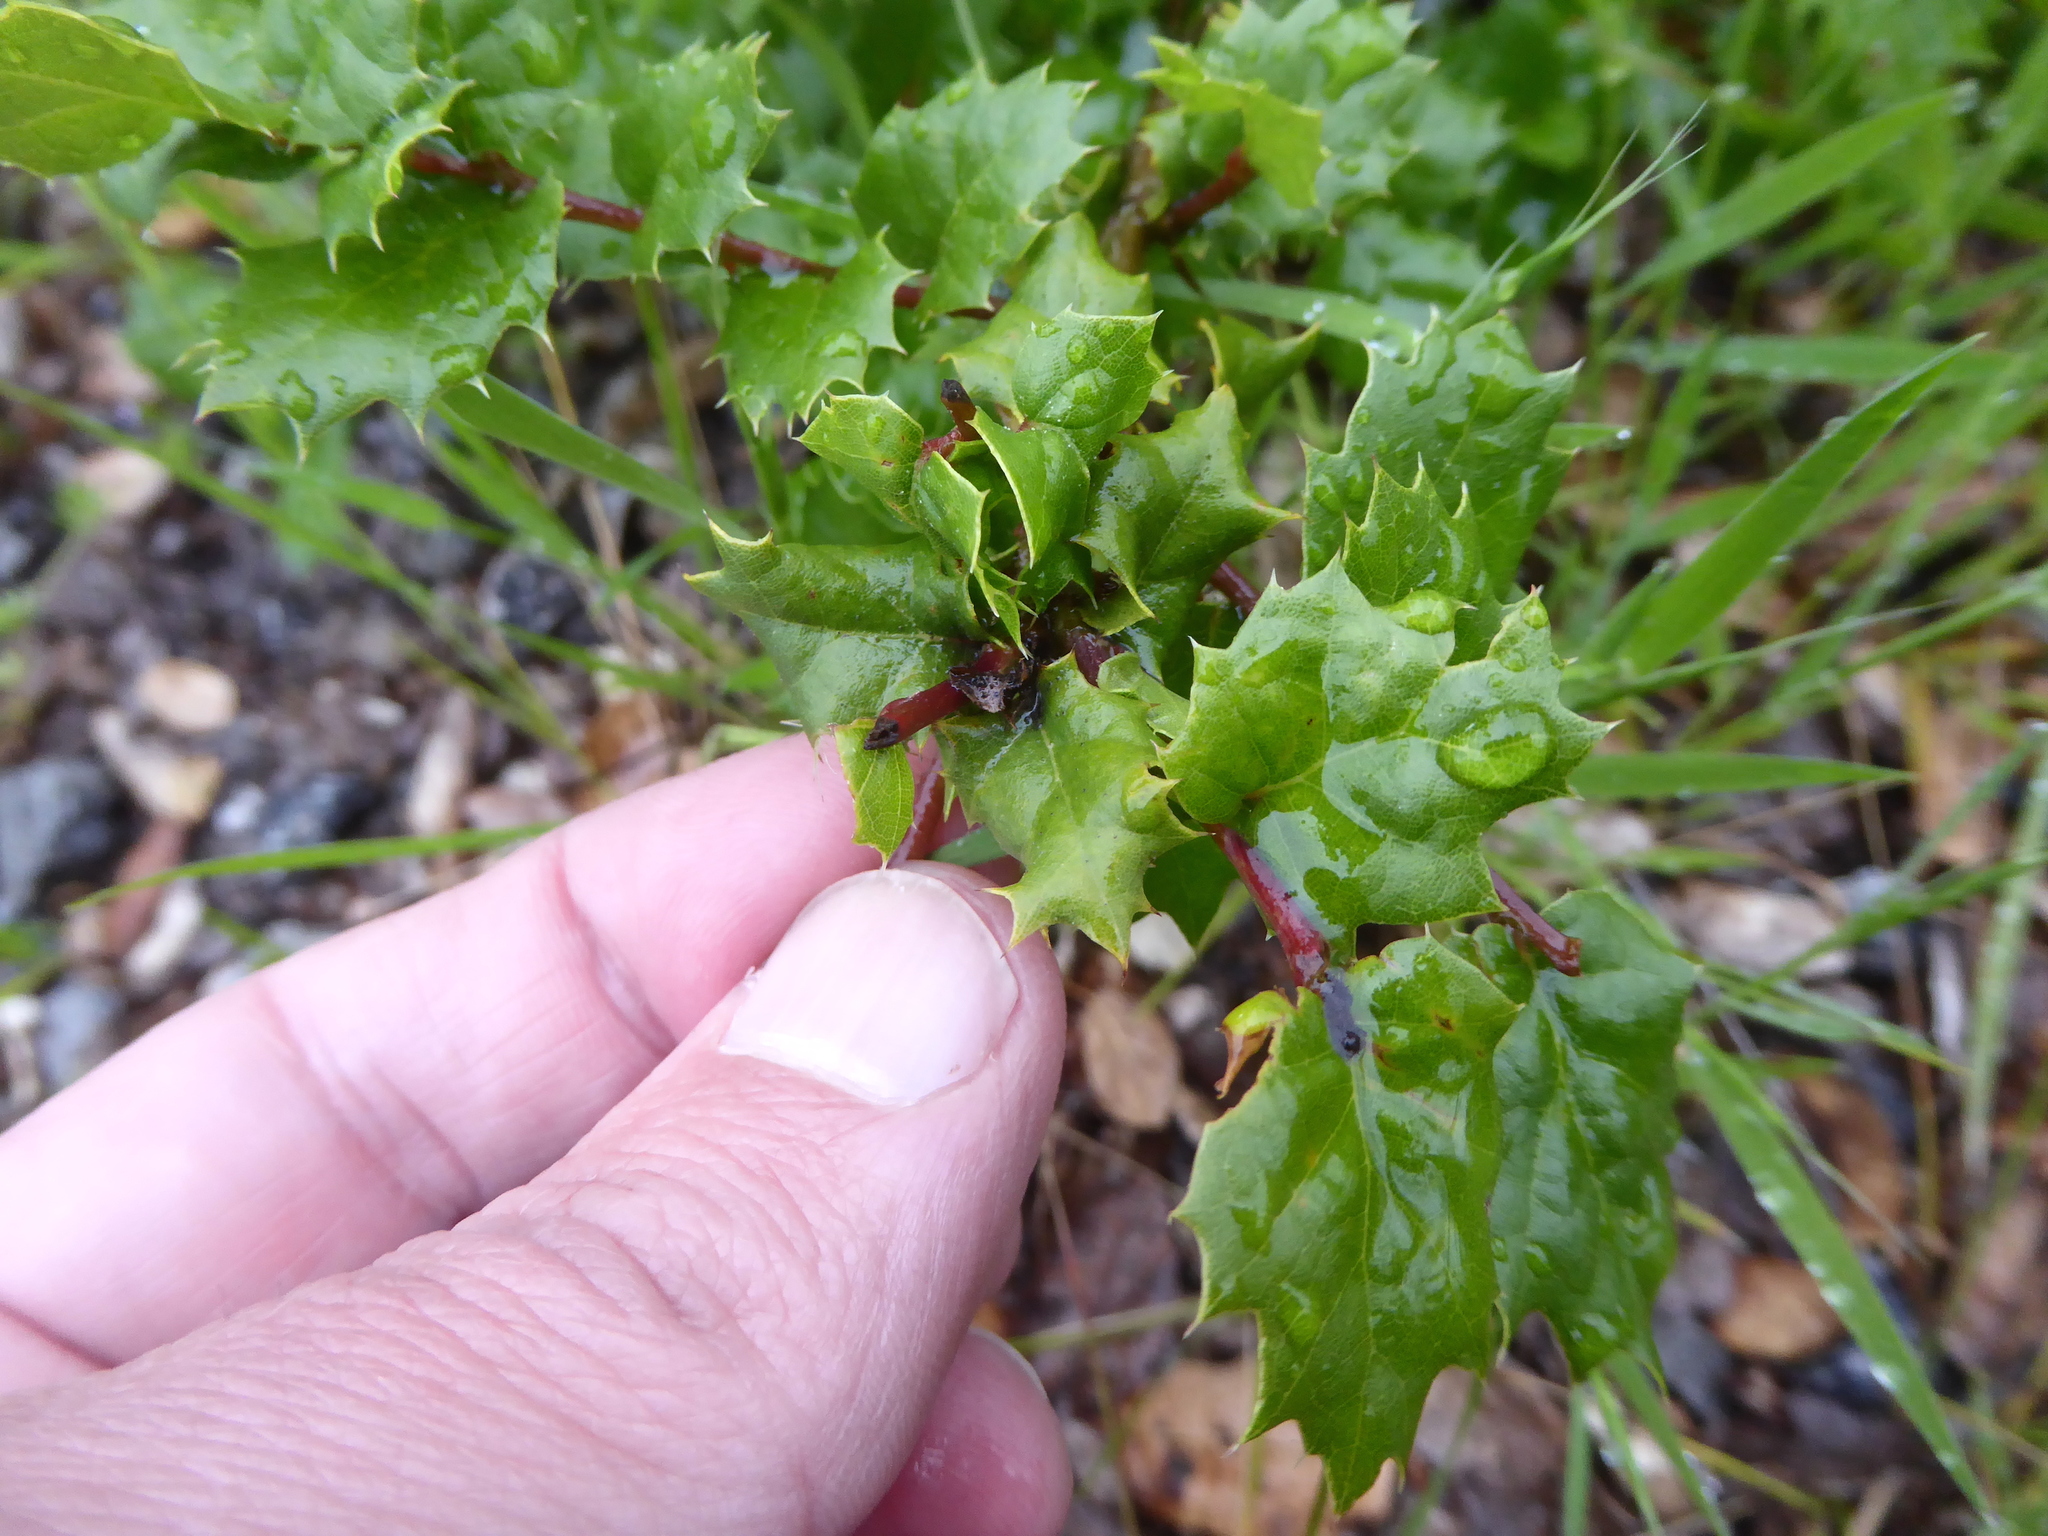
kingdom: Plantae
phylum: Tracheophyta
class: Magnoliopsida
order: Fagales
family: Fagaceae
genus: Quercus
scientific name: Quercus agrifolia
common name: California live oak
